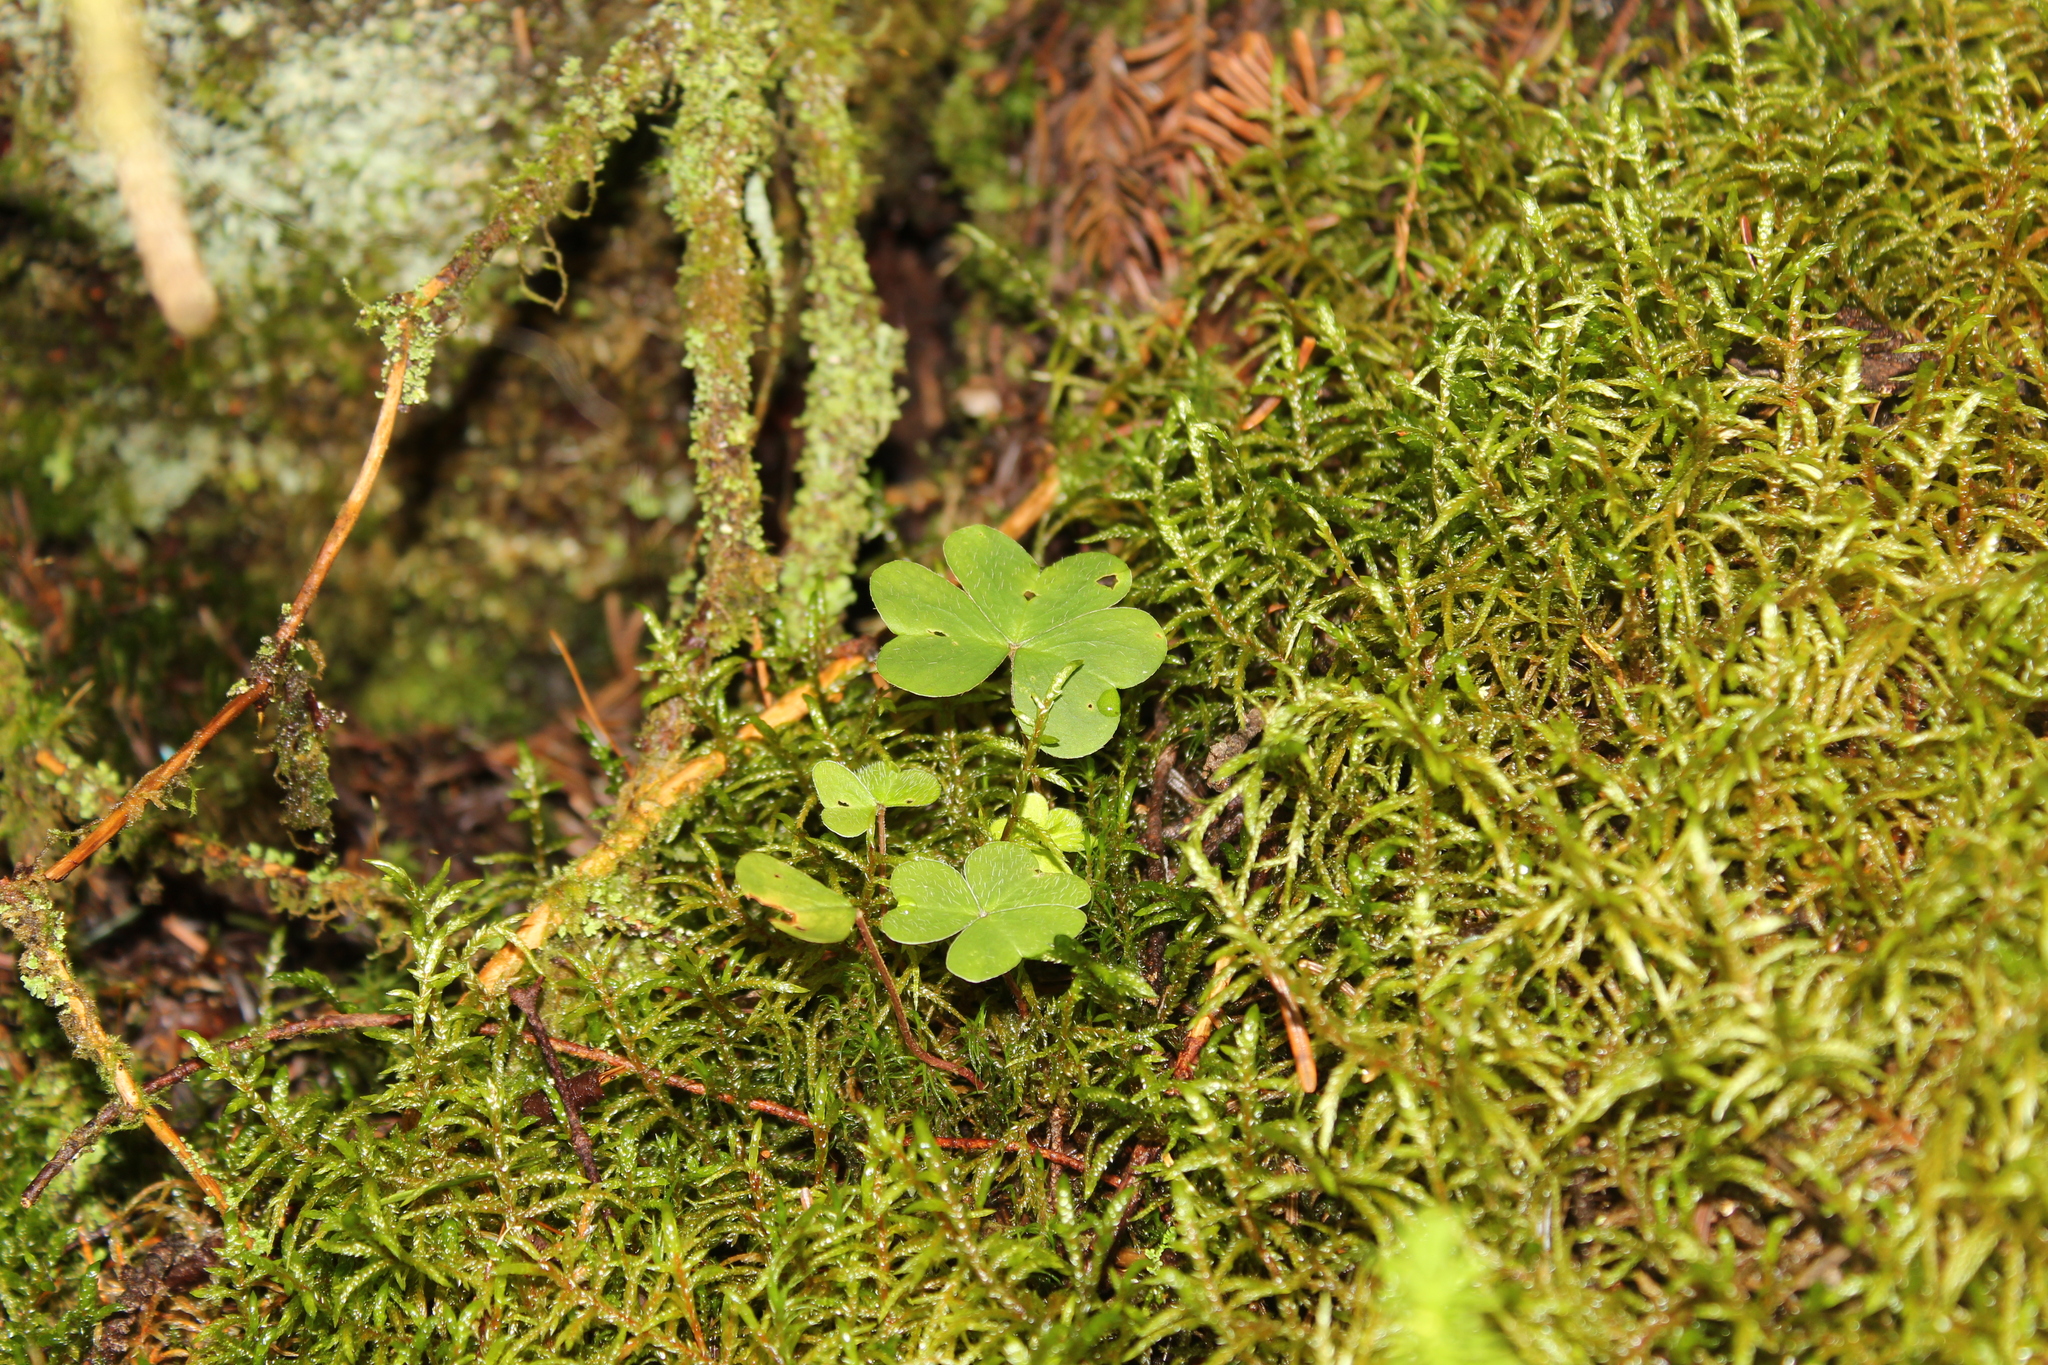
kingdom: Plantae
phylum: Tracheophyta
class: Magnoliopsida
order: Oxalidales
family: Oxalidaceae
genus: Oxalis
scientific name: Oxalis montana
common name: American wood-sorrel
